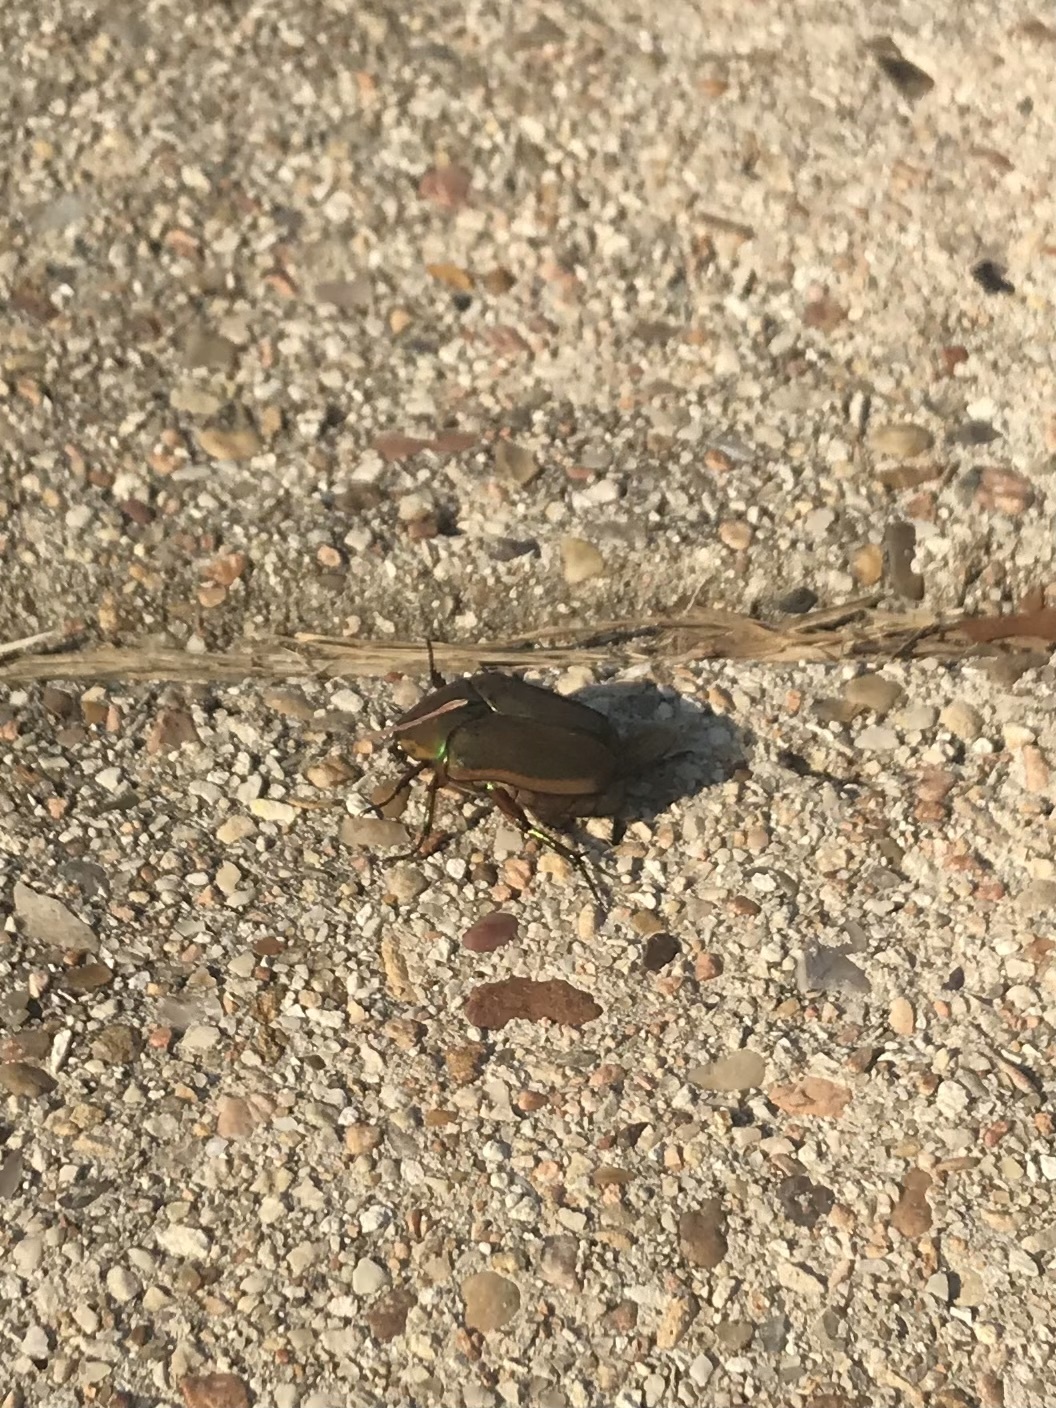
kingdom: Animalia
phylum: Arthropoda
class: Insecta
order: Coleoptera
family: Scarabaeidae
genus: Cotinis
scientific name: Cotinis nitida
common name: Common green june beetle
